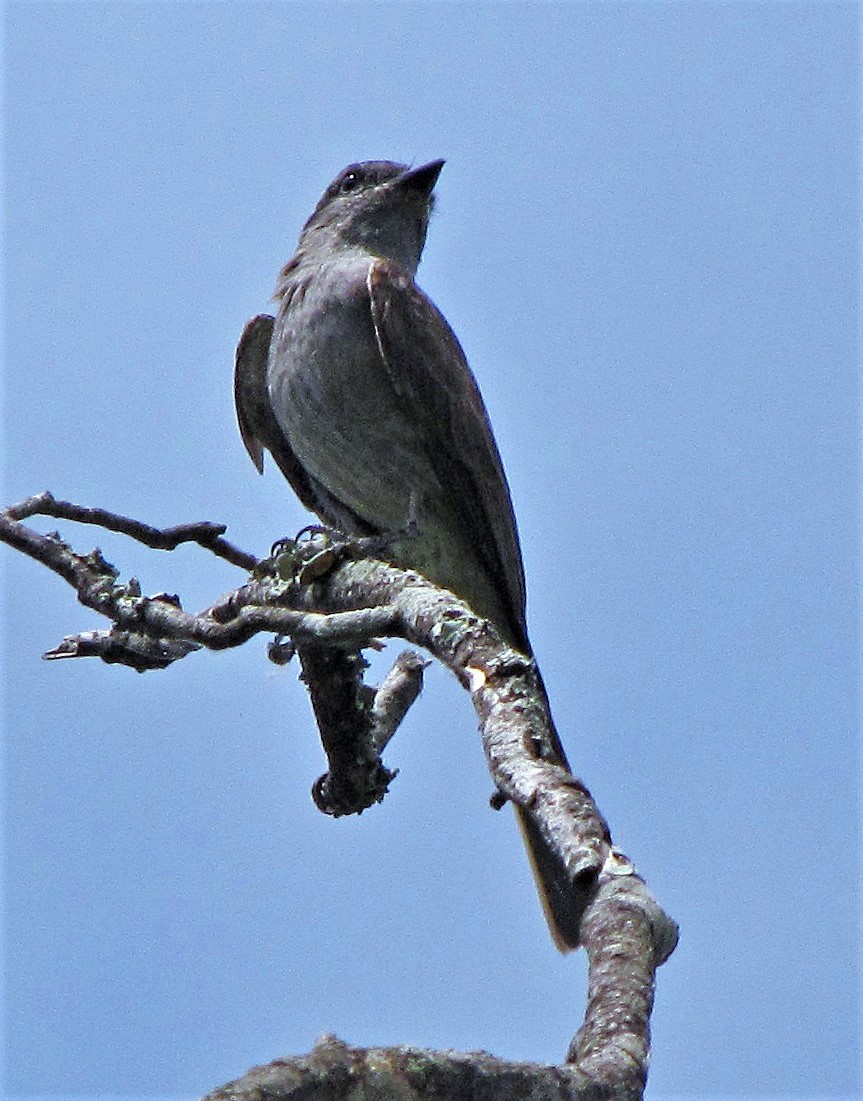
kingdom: Animalia
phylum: Chordata
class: Aves
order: Passeriformes
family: Tyrannidae
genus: Empidonomus
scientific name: Empidonomus aurantioatrocristatus
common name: Crowned slaty flycatcher
